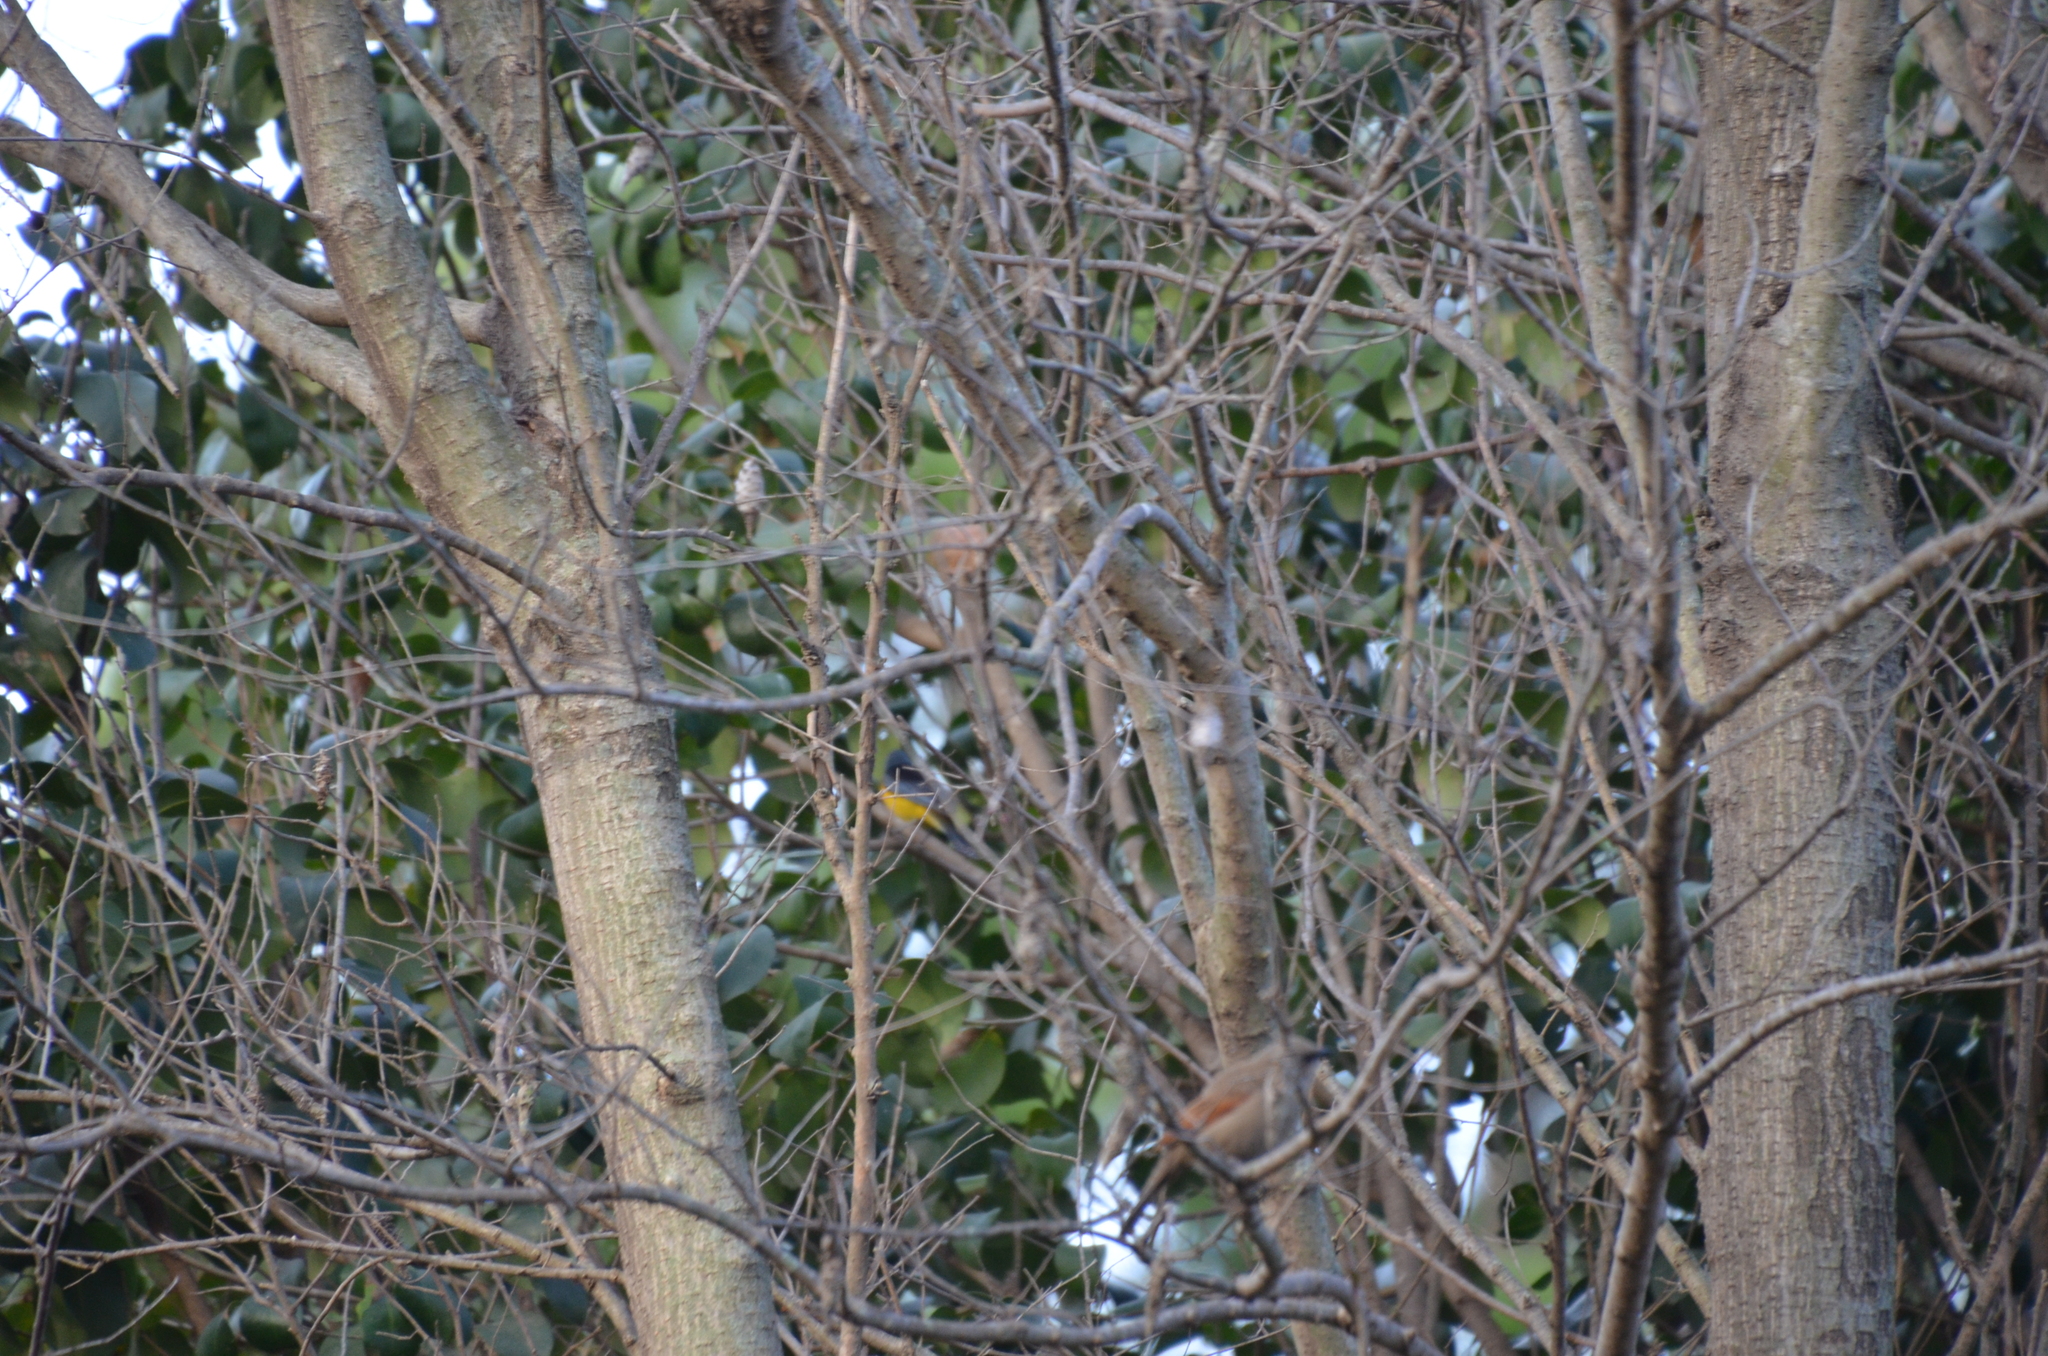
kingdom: Animalia
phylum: Chordata
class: Aves
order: Passeriformes
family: Icteridae
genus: Agelaioides
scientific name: Agelaioides badius
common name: Baywing
